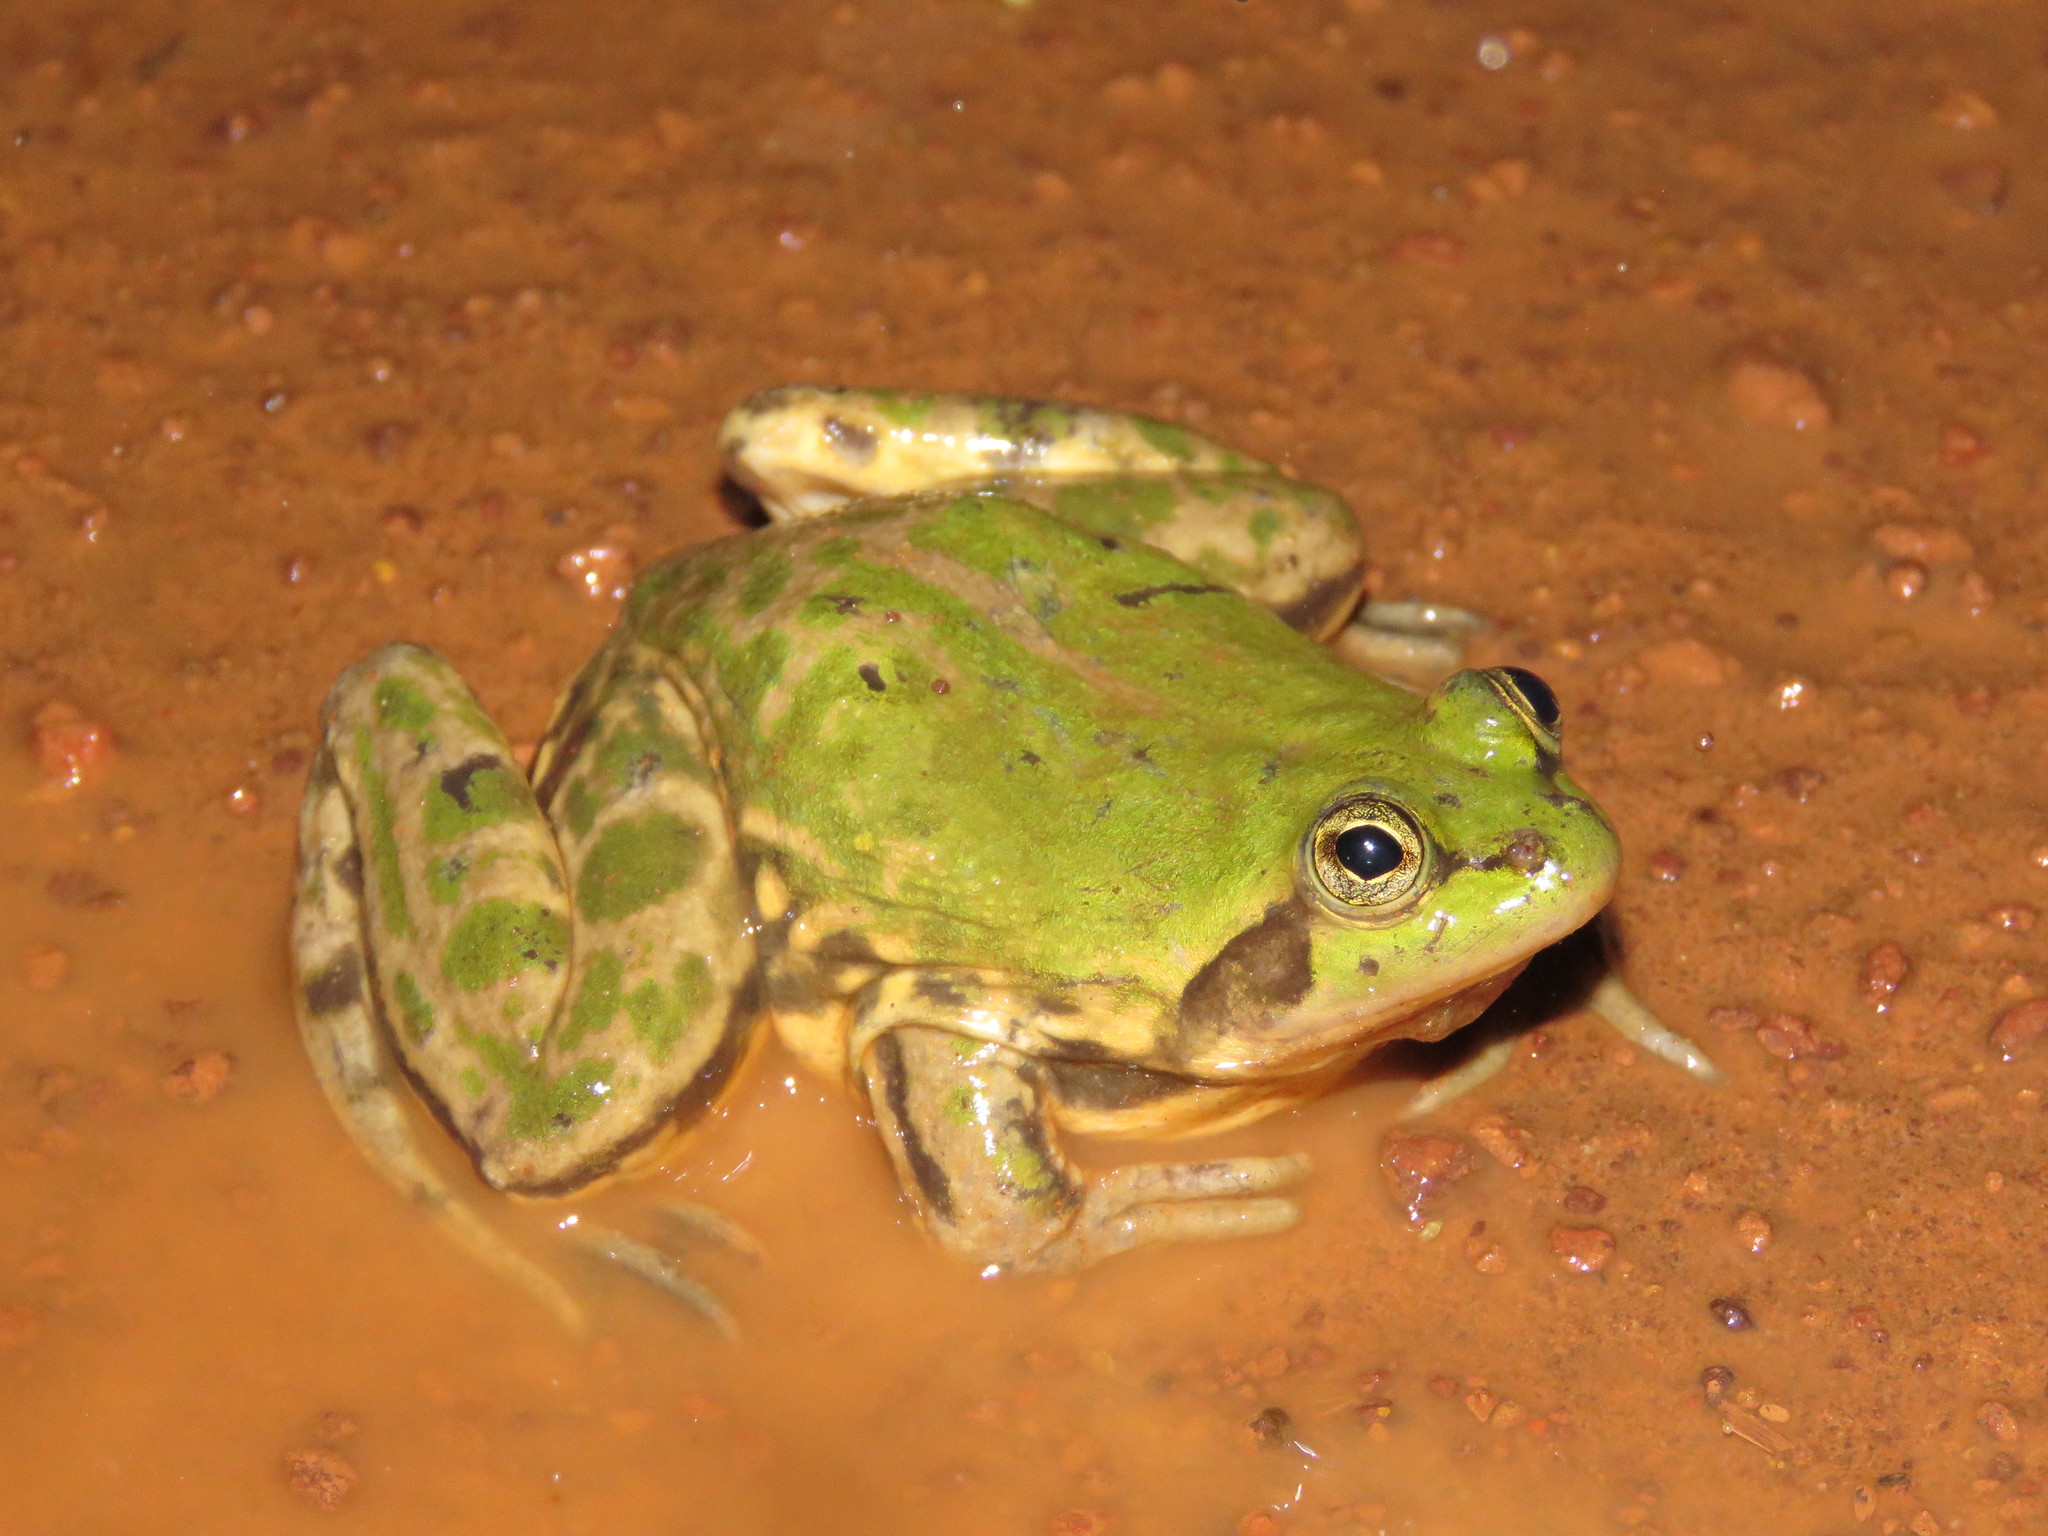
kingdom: Animalia
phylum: Chordata
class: Amphibia
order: Anura
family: Hylidae
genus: Pseudis
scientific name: Pseudis paradoxa
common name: Swimming frog
